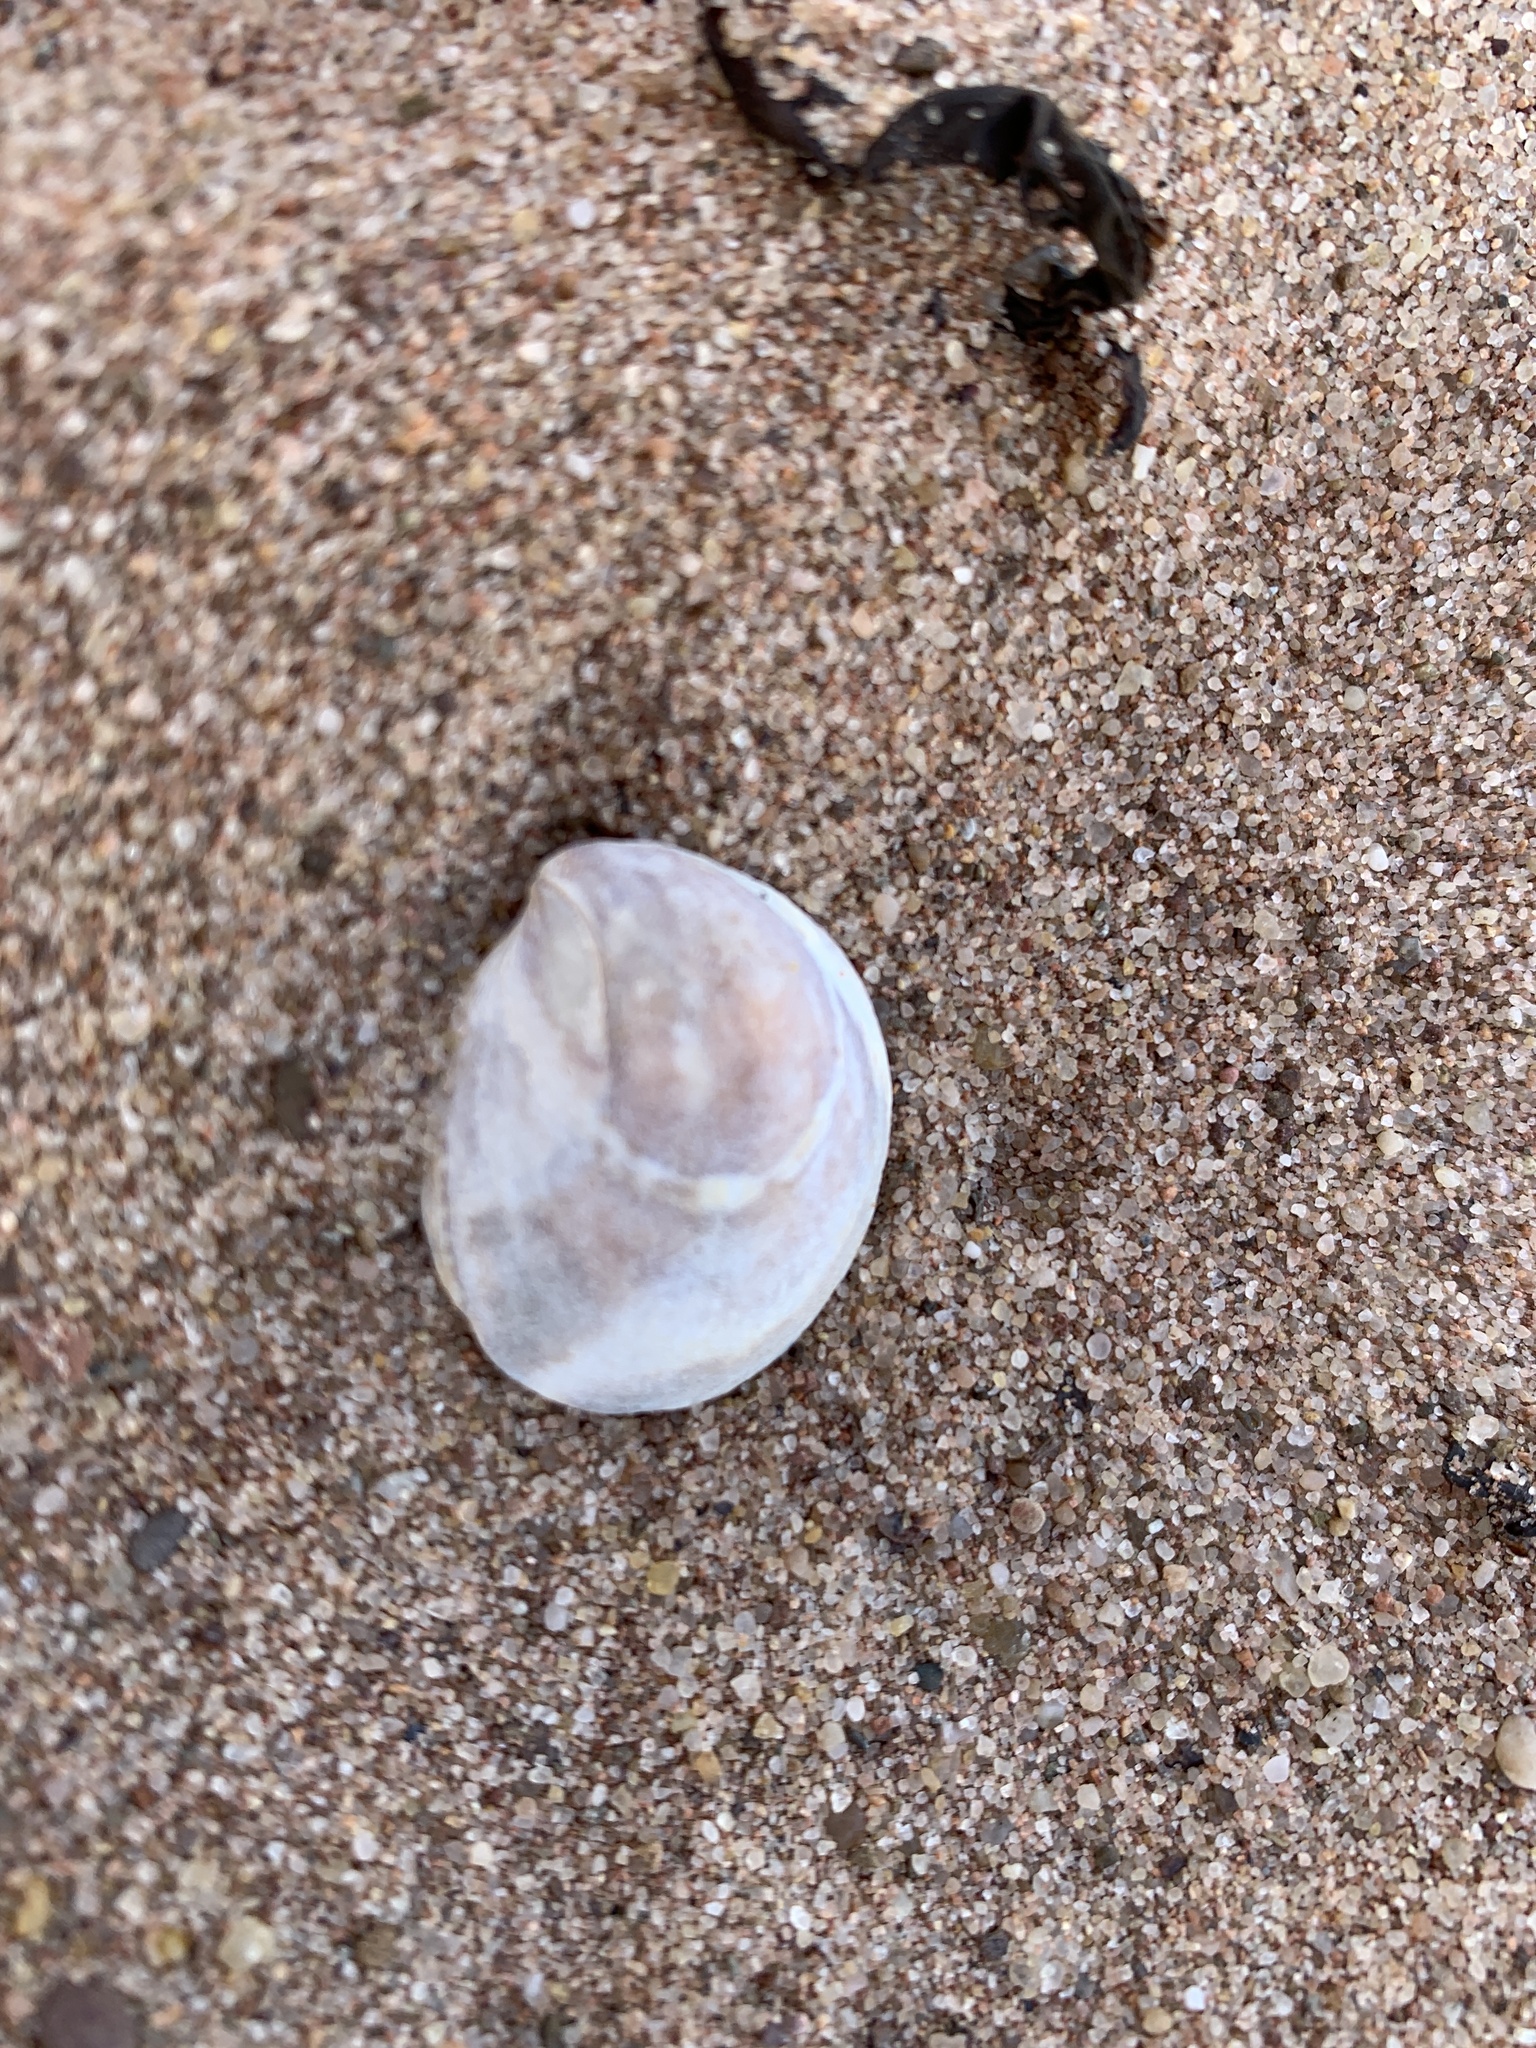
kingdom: Animalia
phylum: Mollusca
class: Gastropoda
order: Littorinimorpha
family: Calyptraeidae
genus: Crepidula
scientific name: Crepidula fornicata
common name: Slipper limpet
